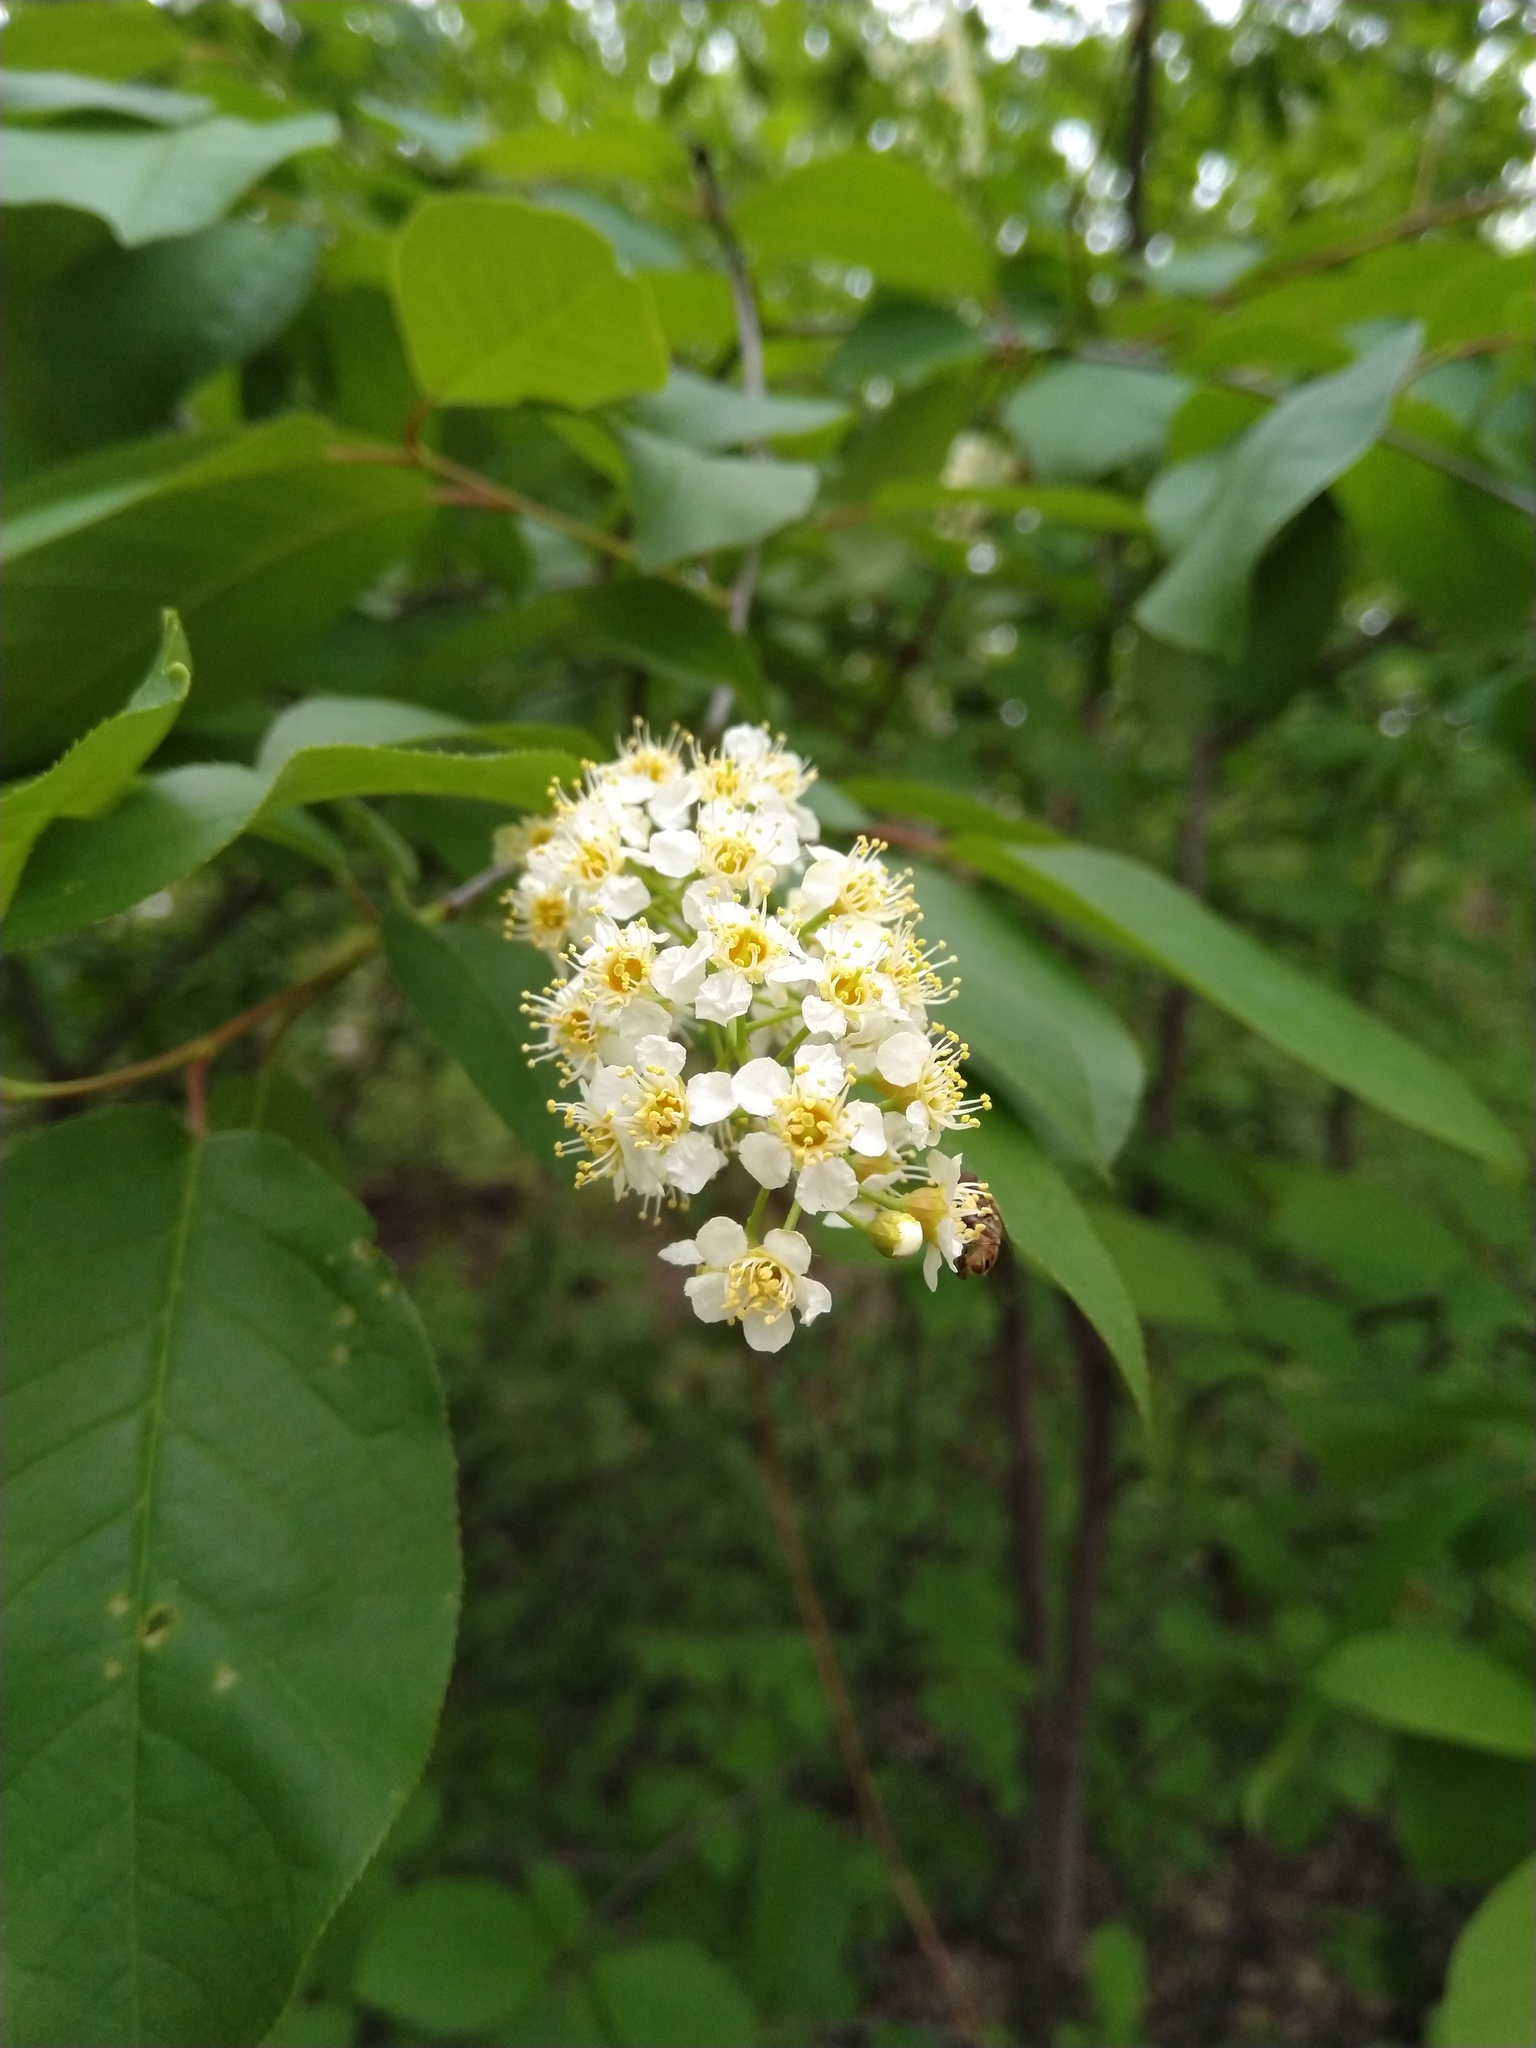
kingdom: Plantae
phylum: Tracheophyta
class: Magnoliopsida
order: Rosales
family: Rosaceae
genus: Prunus
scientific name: Prunus virginiana
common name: Chokecherry
